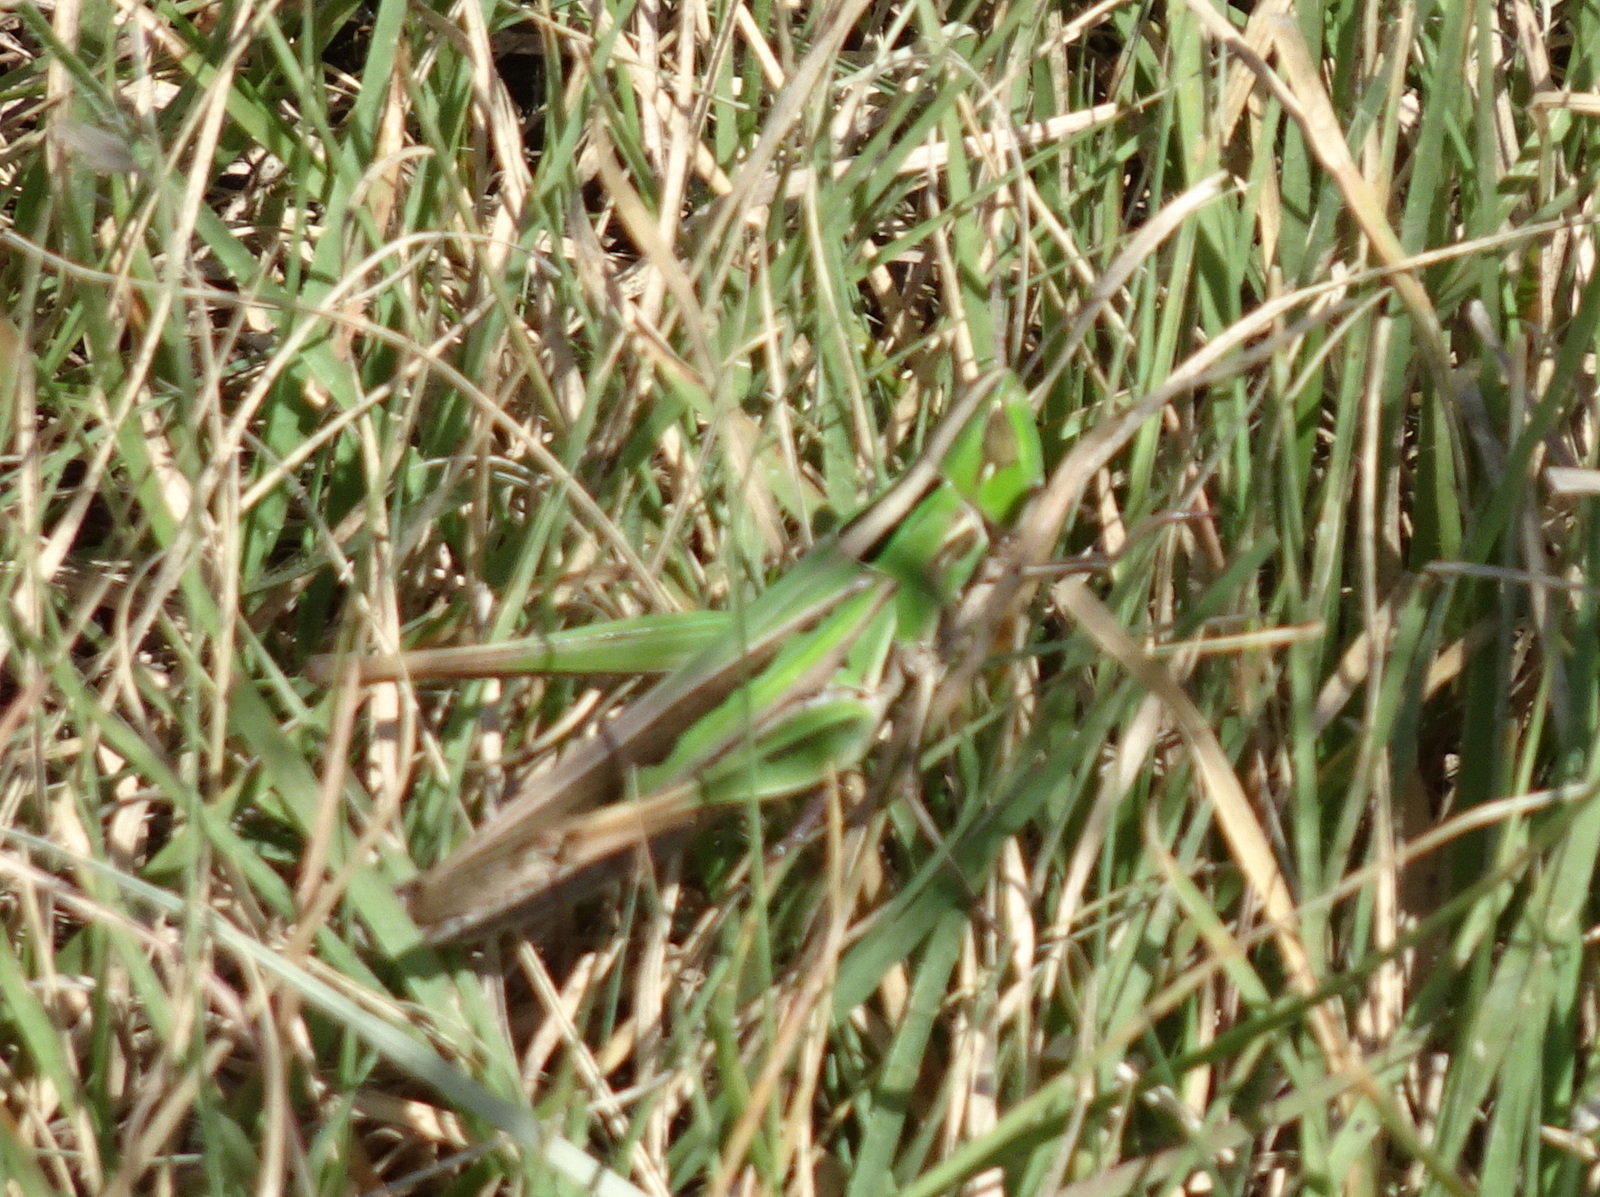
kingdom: Animalia
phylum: Arthropoda
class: Insecta
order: Orthoptera
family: Acrididae
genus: Syrbula
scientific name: Syrbula admirabilis
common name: Handsome grasshopper
